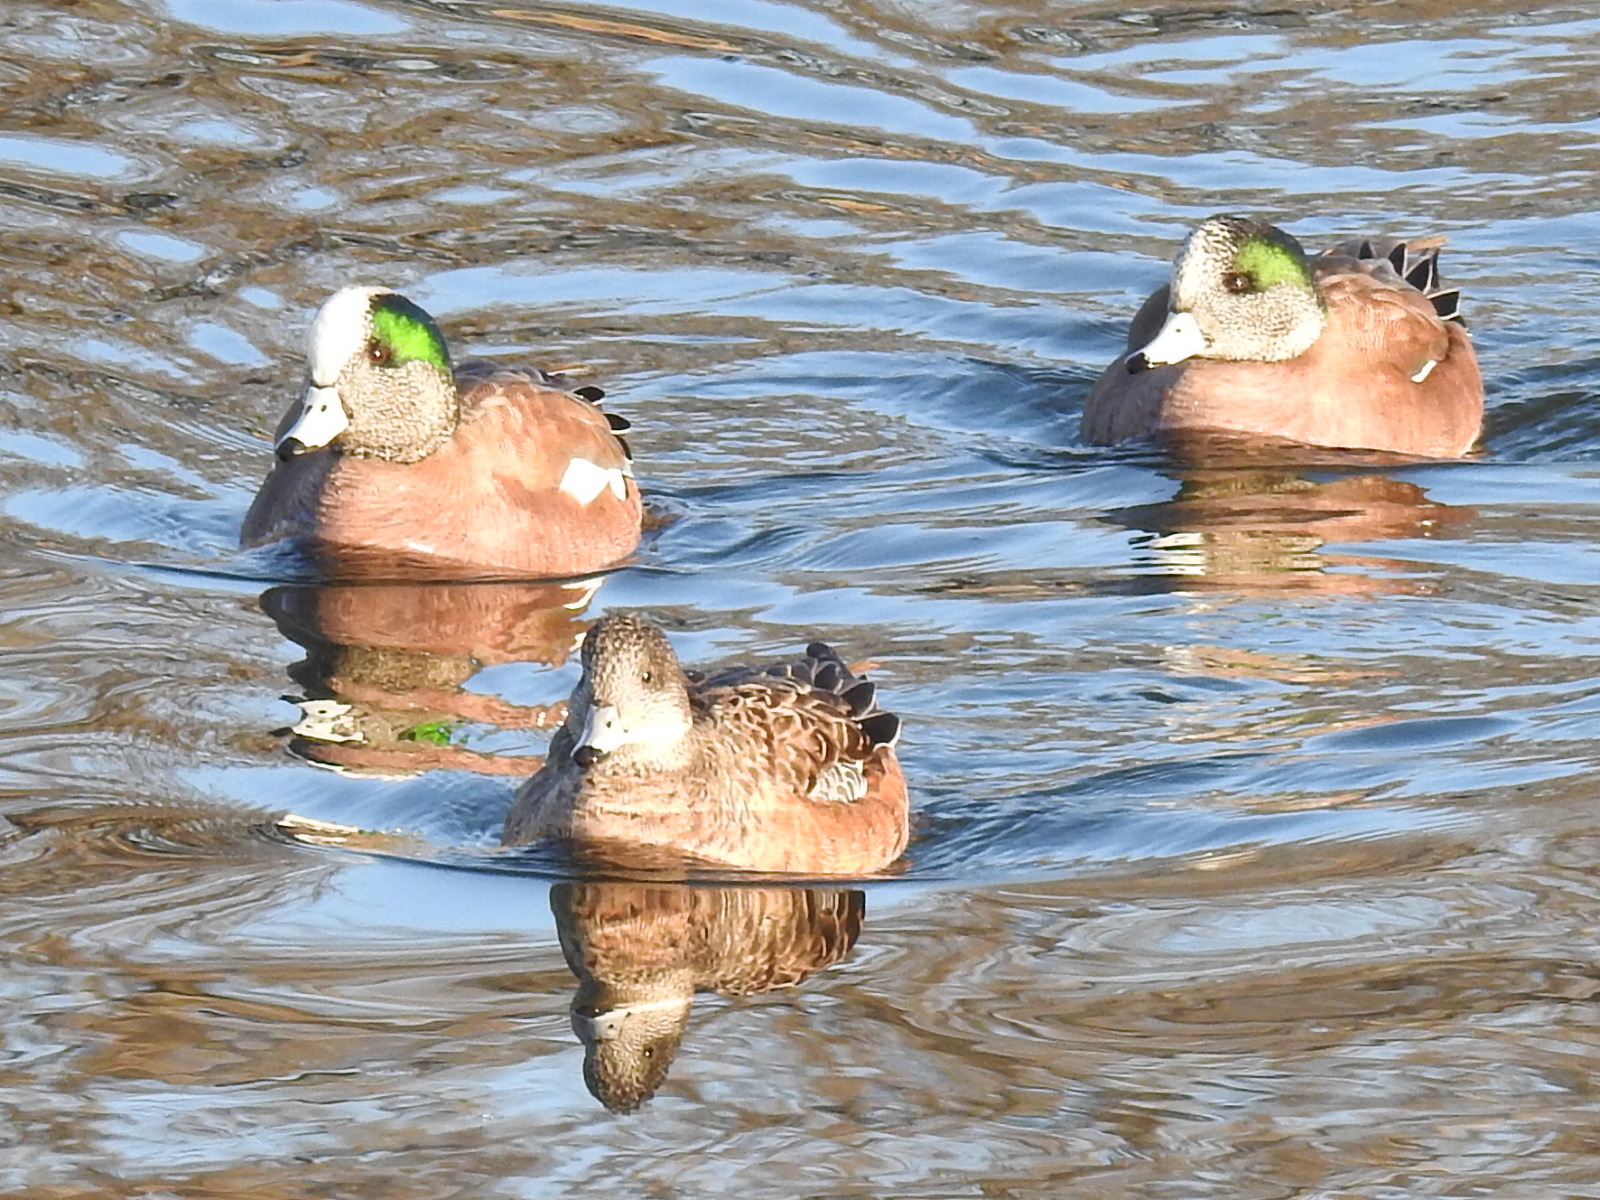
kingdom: Animalia
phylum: Chordata
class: Aves
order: Anseriformes
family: Anatidae
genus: Mareca
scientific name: Mareca americana
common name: American wigeon
